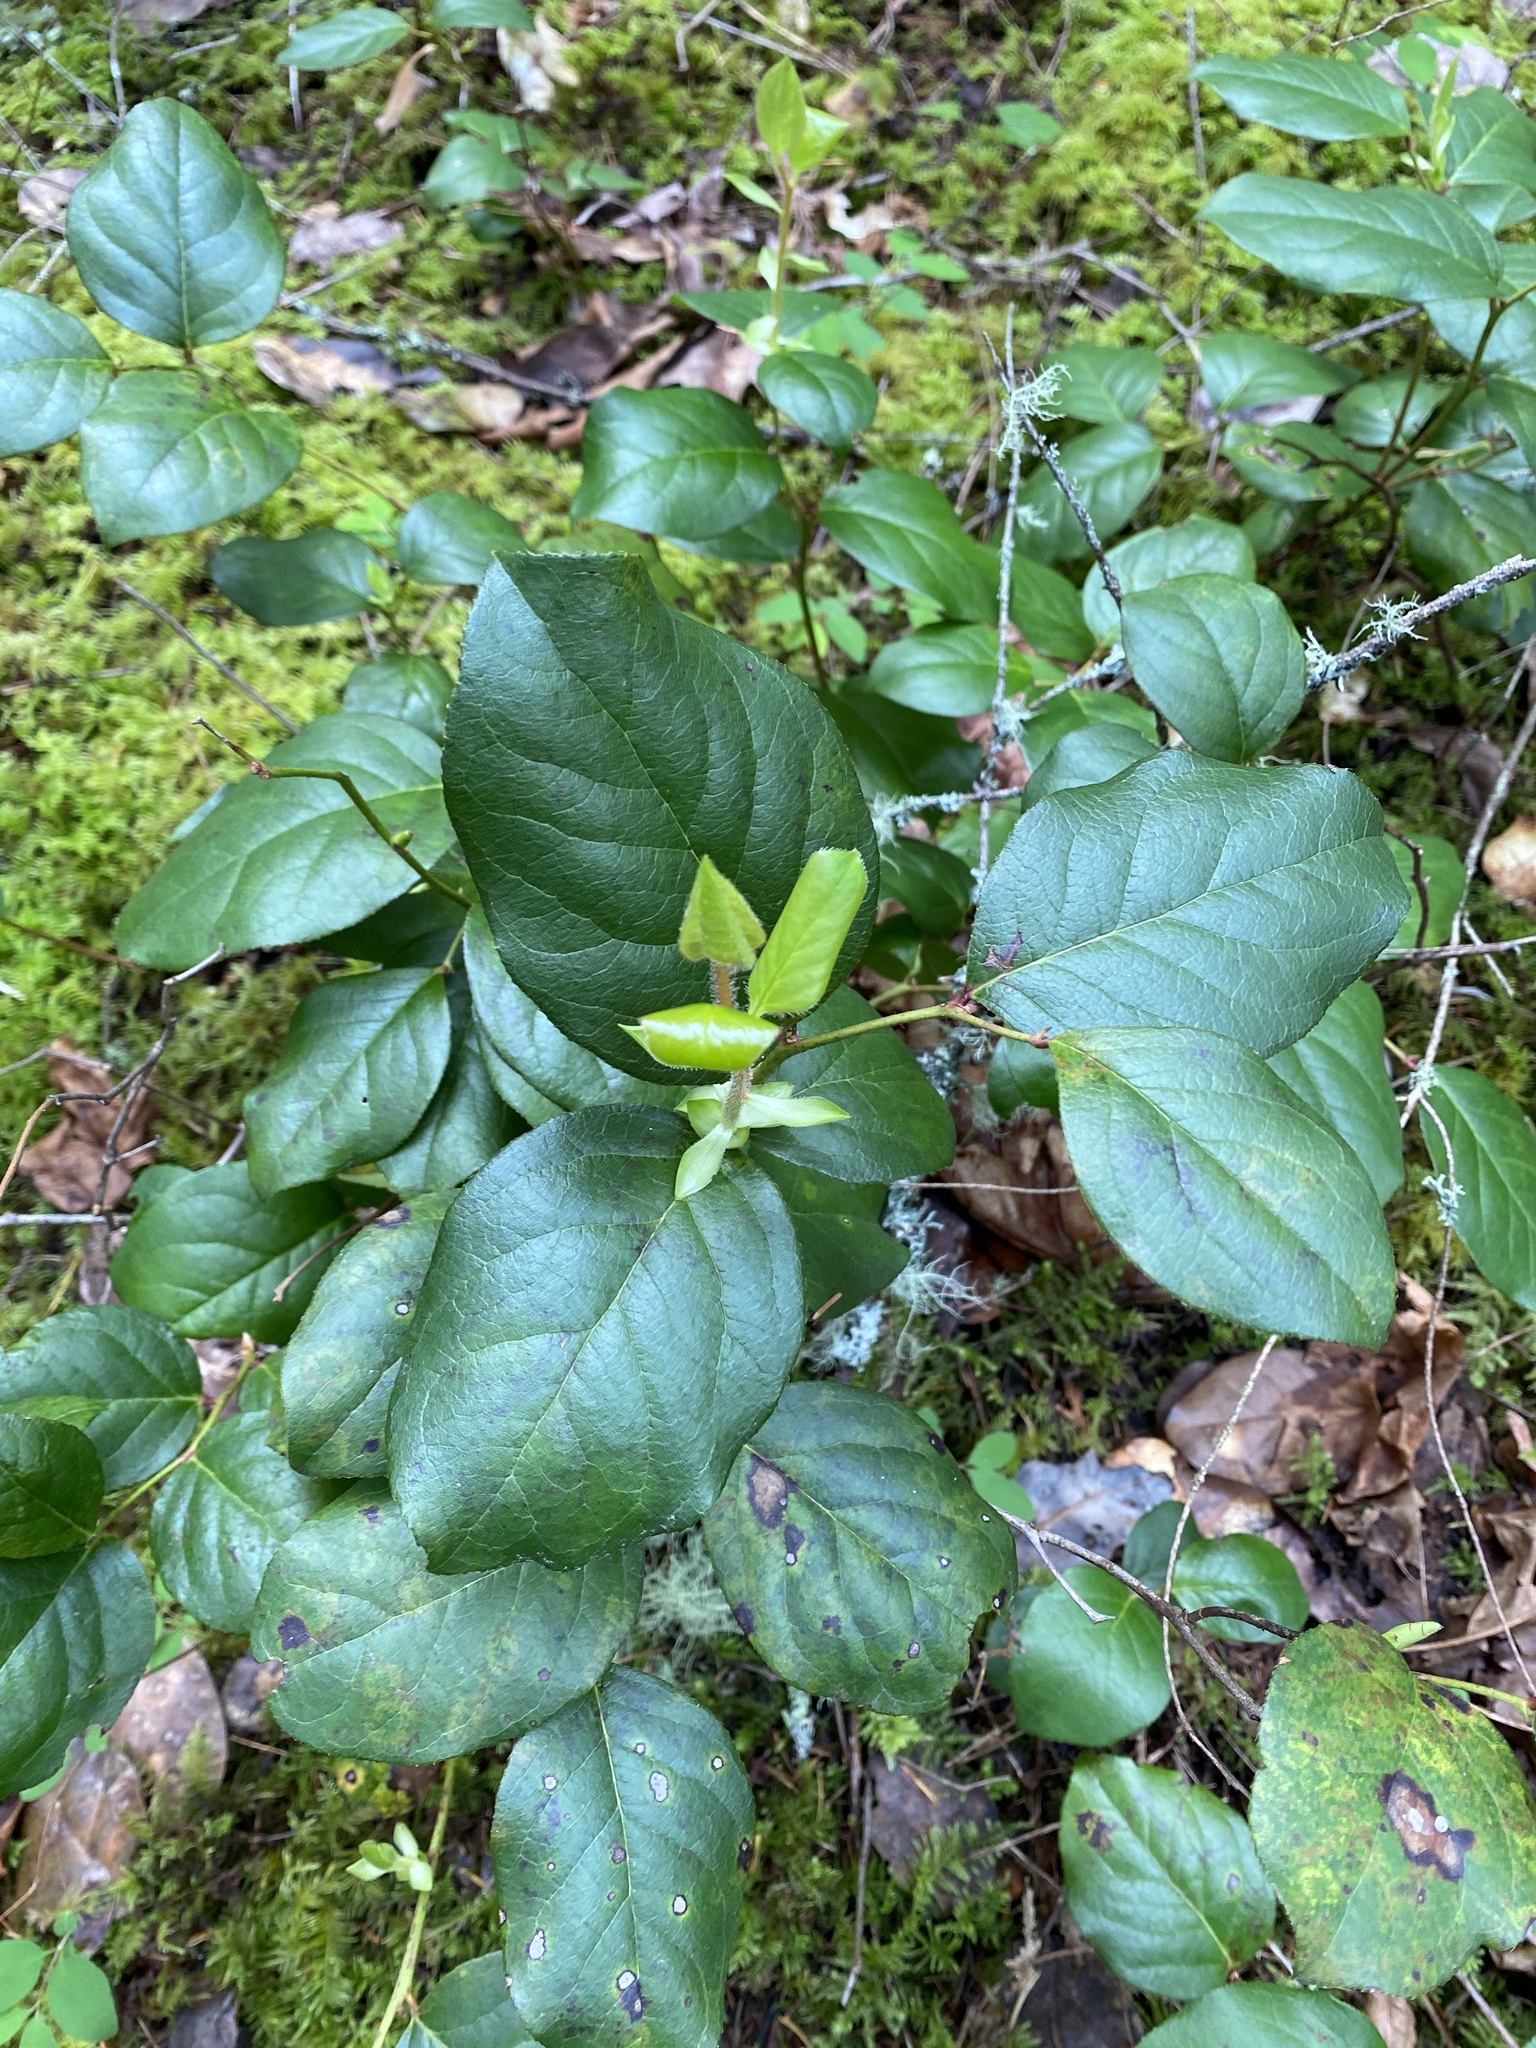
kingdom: Plantae
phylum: Tracheophyta
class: Magnoliopsida
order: Ericales
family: Ericaceae
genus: Gaultheria
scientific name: Gaultheria shallon
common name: Shallon
